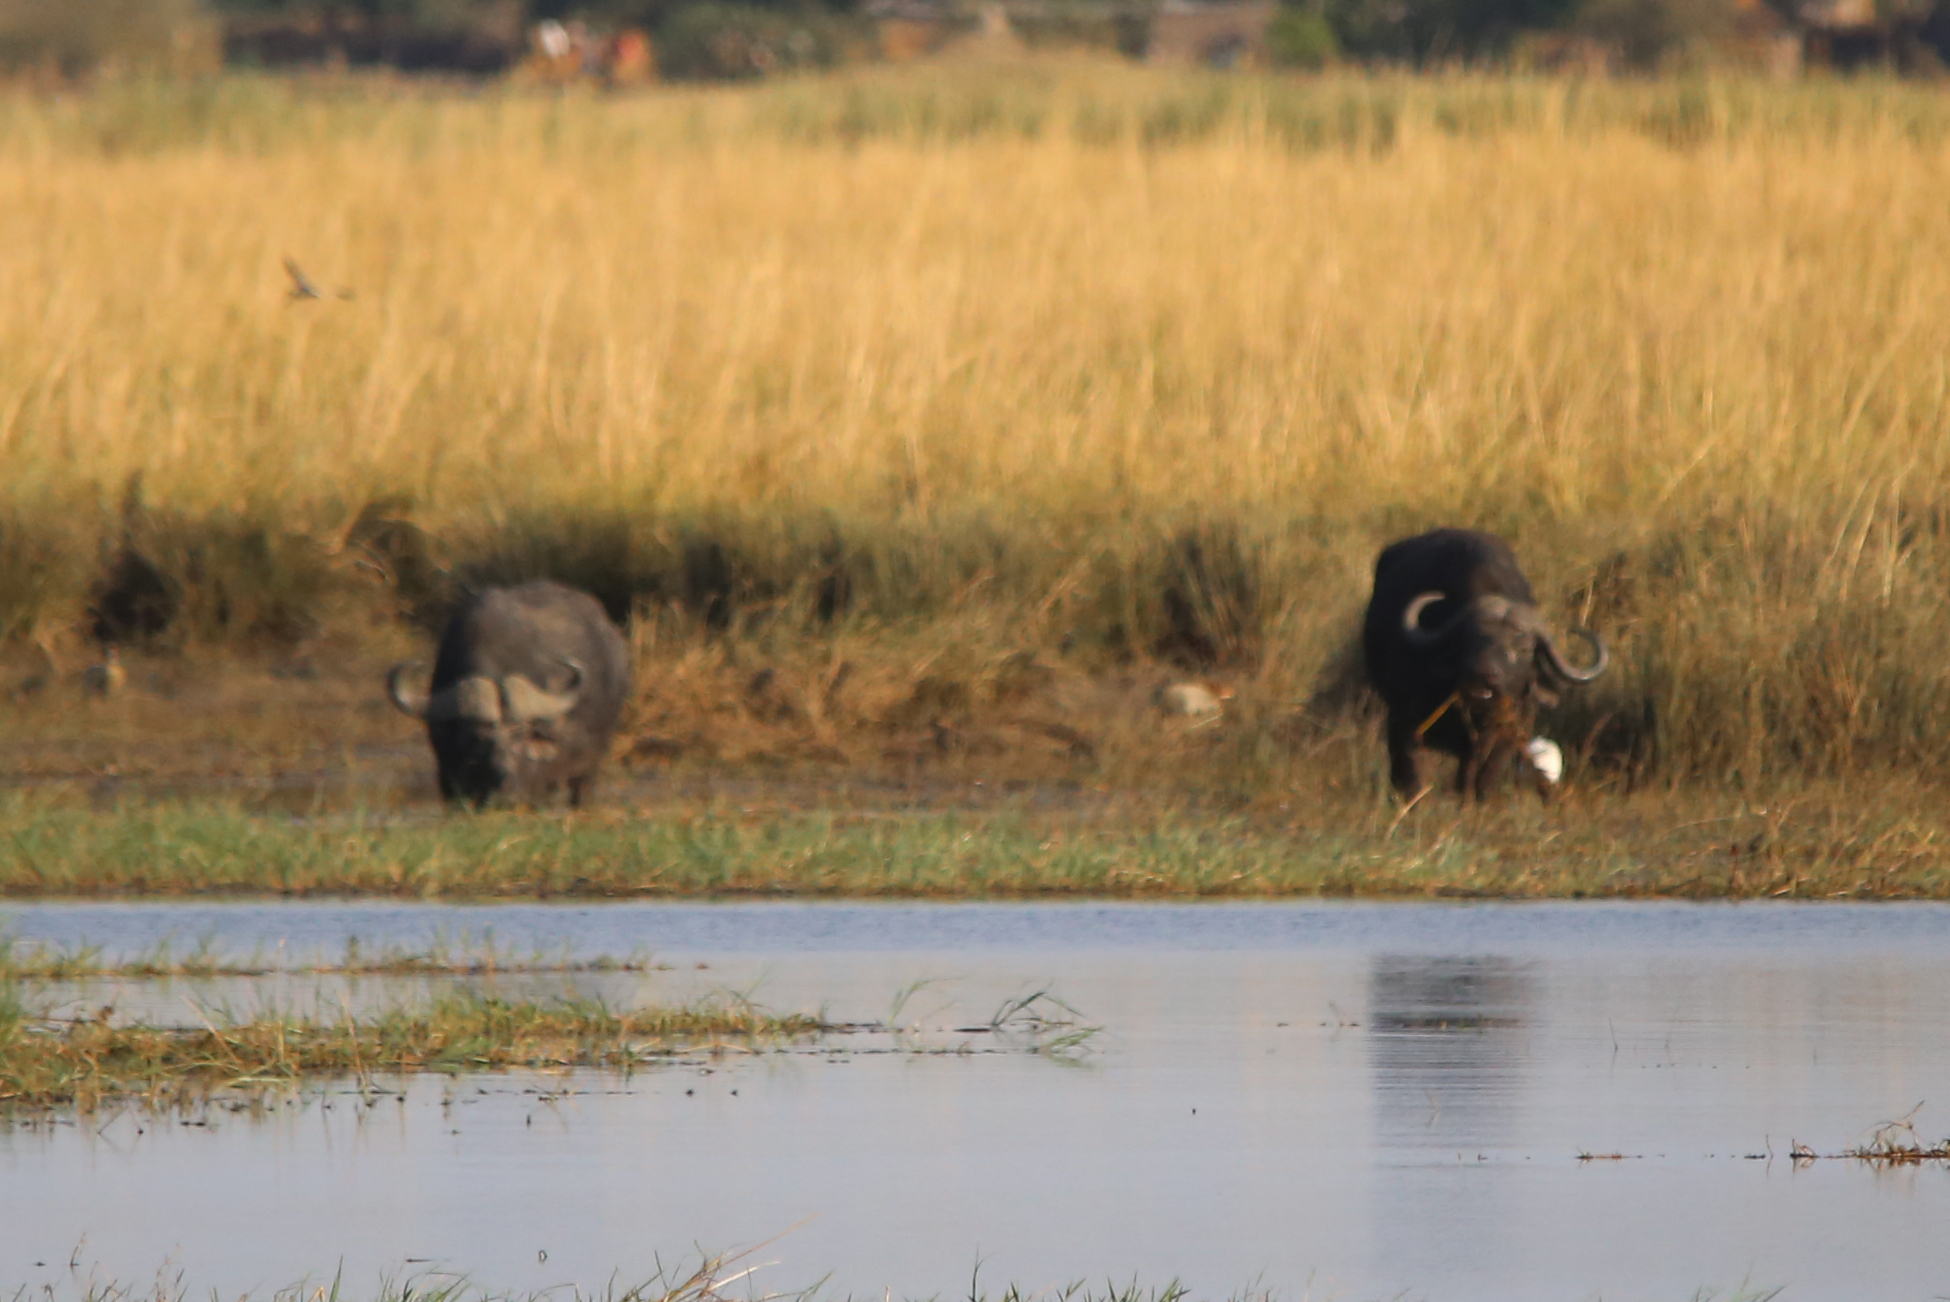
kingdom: Animalia
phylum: Chordata
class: Mammalia
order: Artiodactyla
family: Bovidae
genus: Syncerus
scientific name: Syncerus caffer
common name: African buffalo
